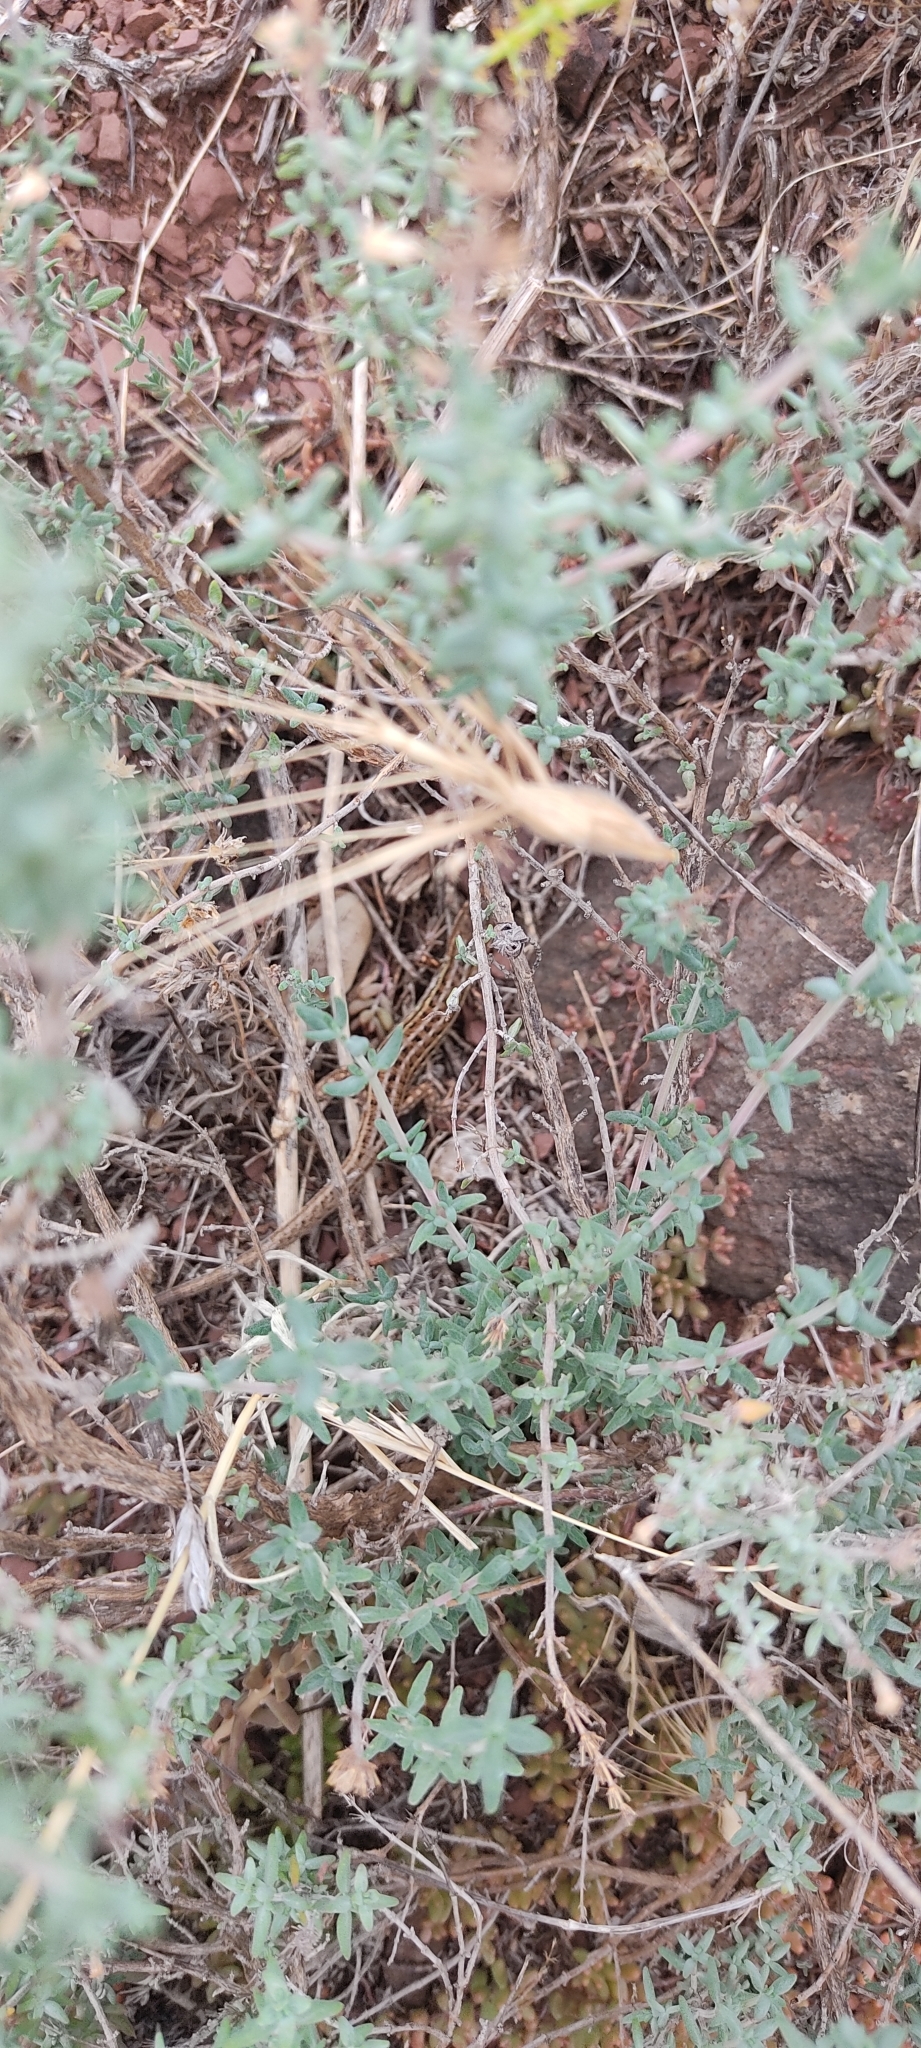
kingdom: Animalia
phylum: Chordata
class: Squamata
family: Lacertidae
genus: Psammodromus
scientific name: Psammodromus edwarsianus
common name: East iberian psammodromus
